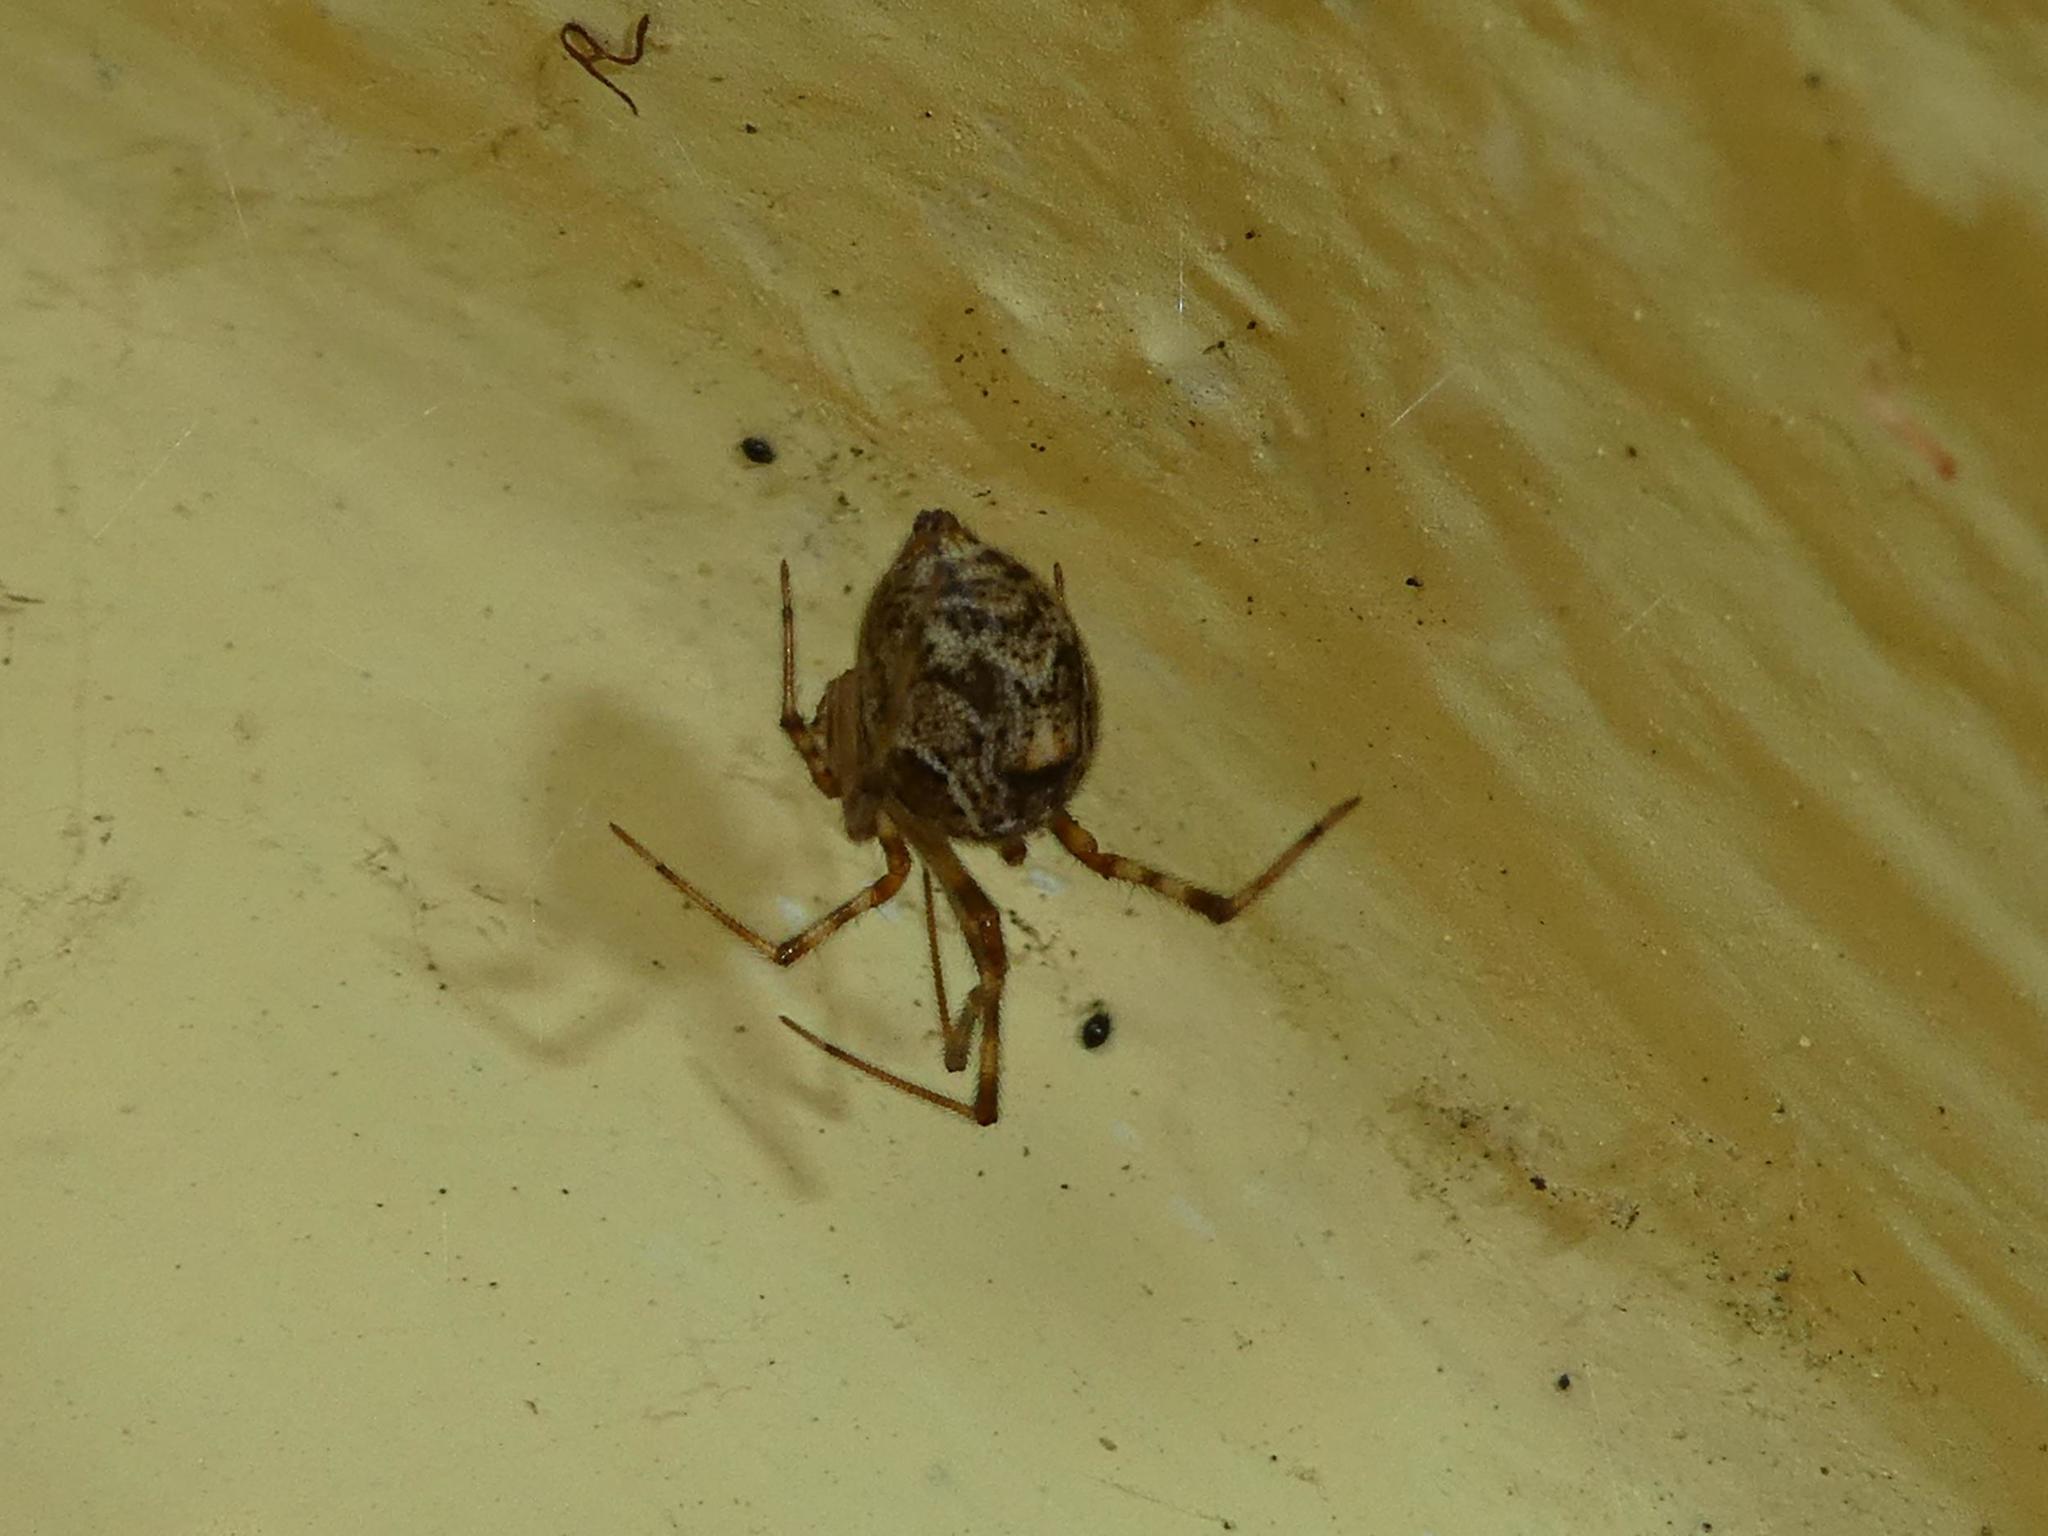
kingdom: Animalia
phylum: Arthropoda
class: Arachnida
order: Araneae
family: Theridiidae
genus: Parasteatoda
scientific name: Parasteatoda tepidariorum
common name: Common house spider
